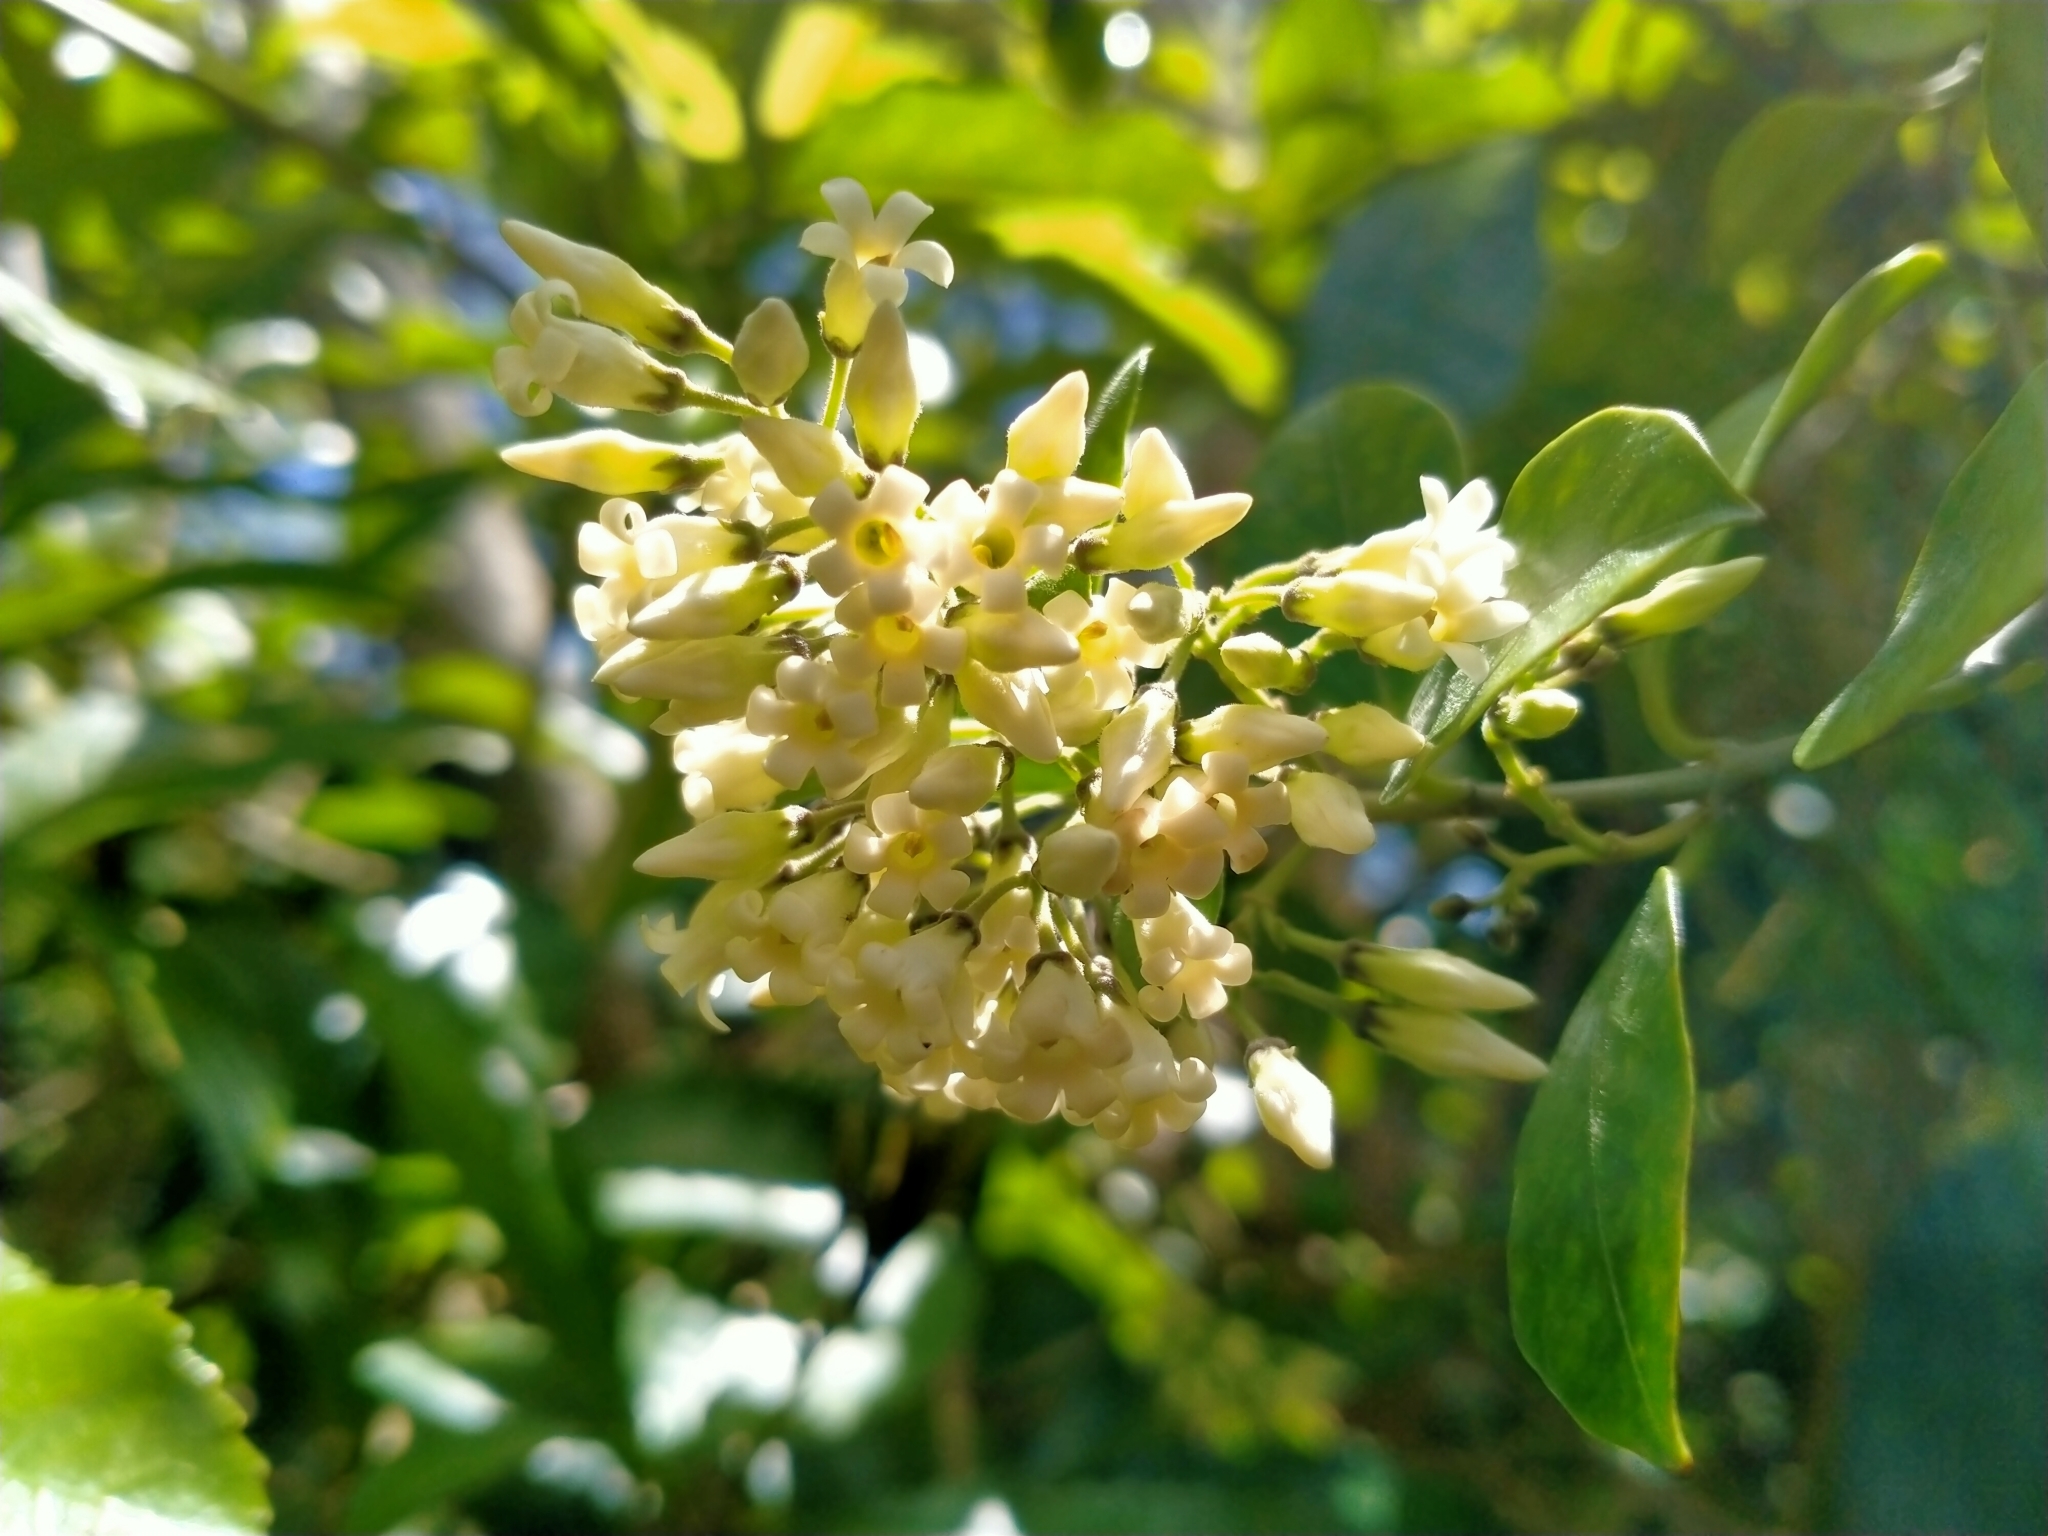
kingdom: Plantae
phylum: Tracheophyta
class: Magnoliopsida
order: Gentianales
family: Apocynaceae
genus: Parsonsia
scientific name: Parsonsia heterophylla
